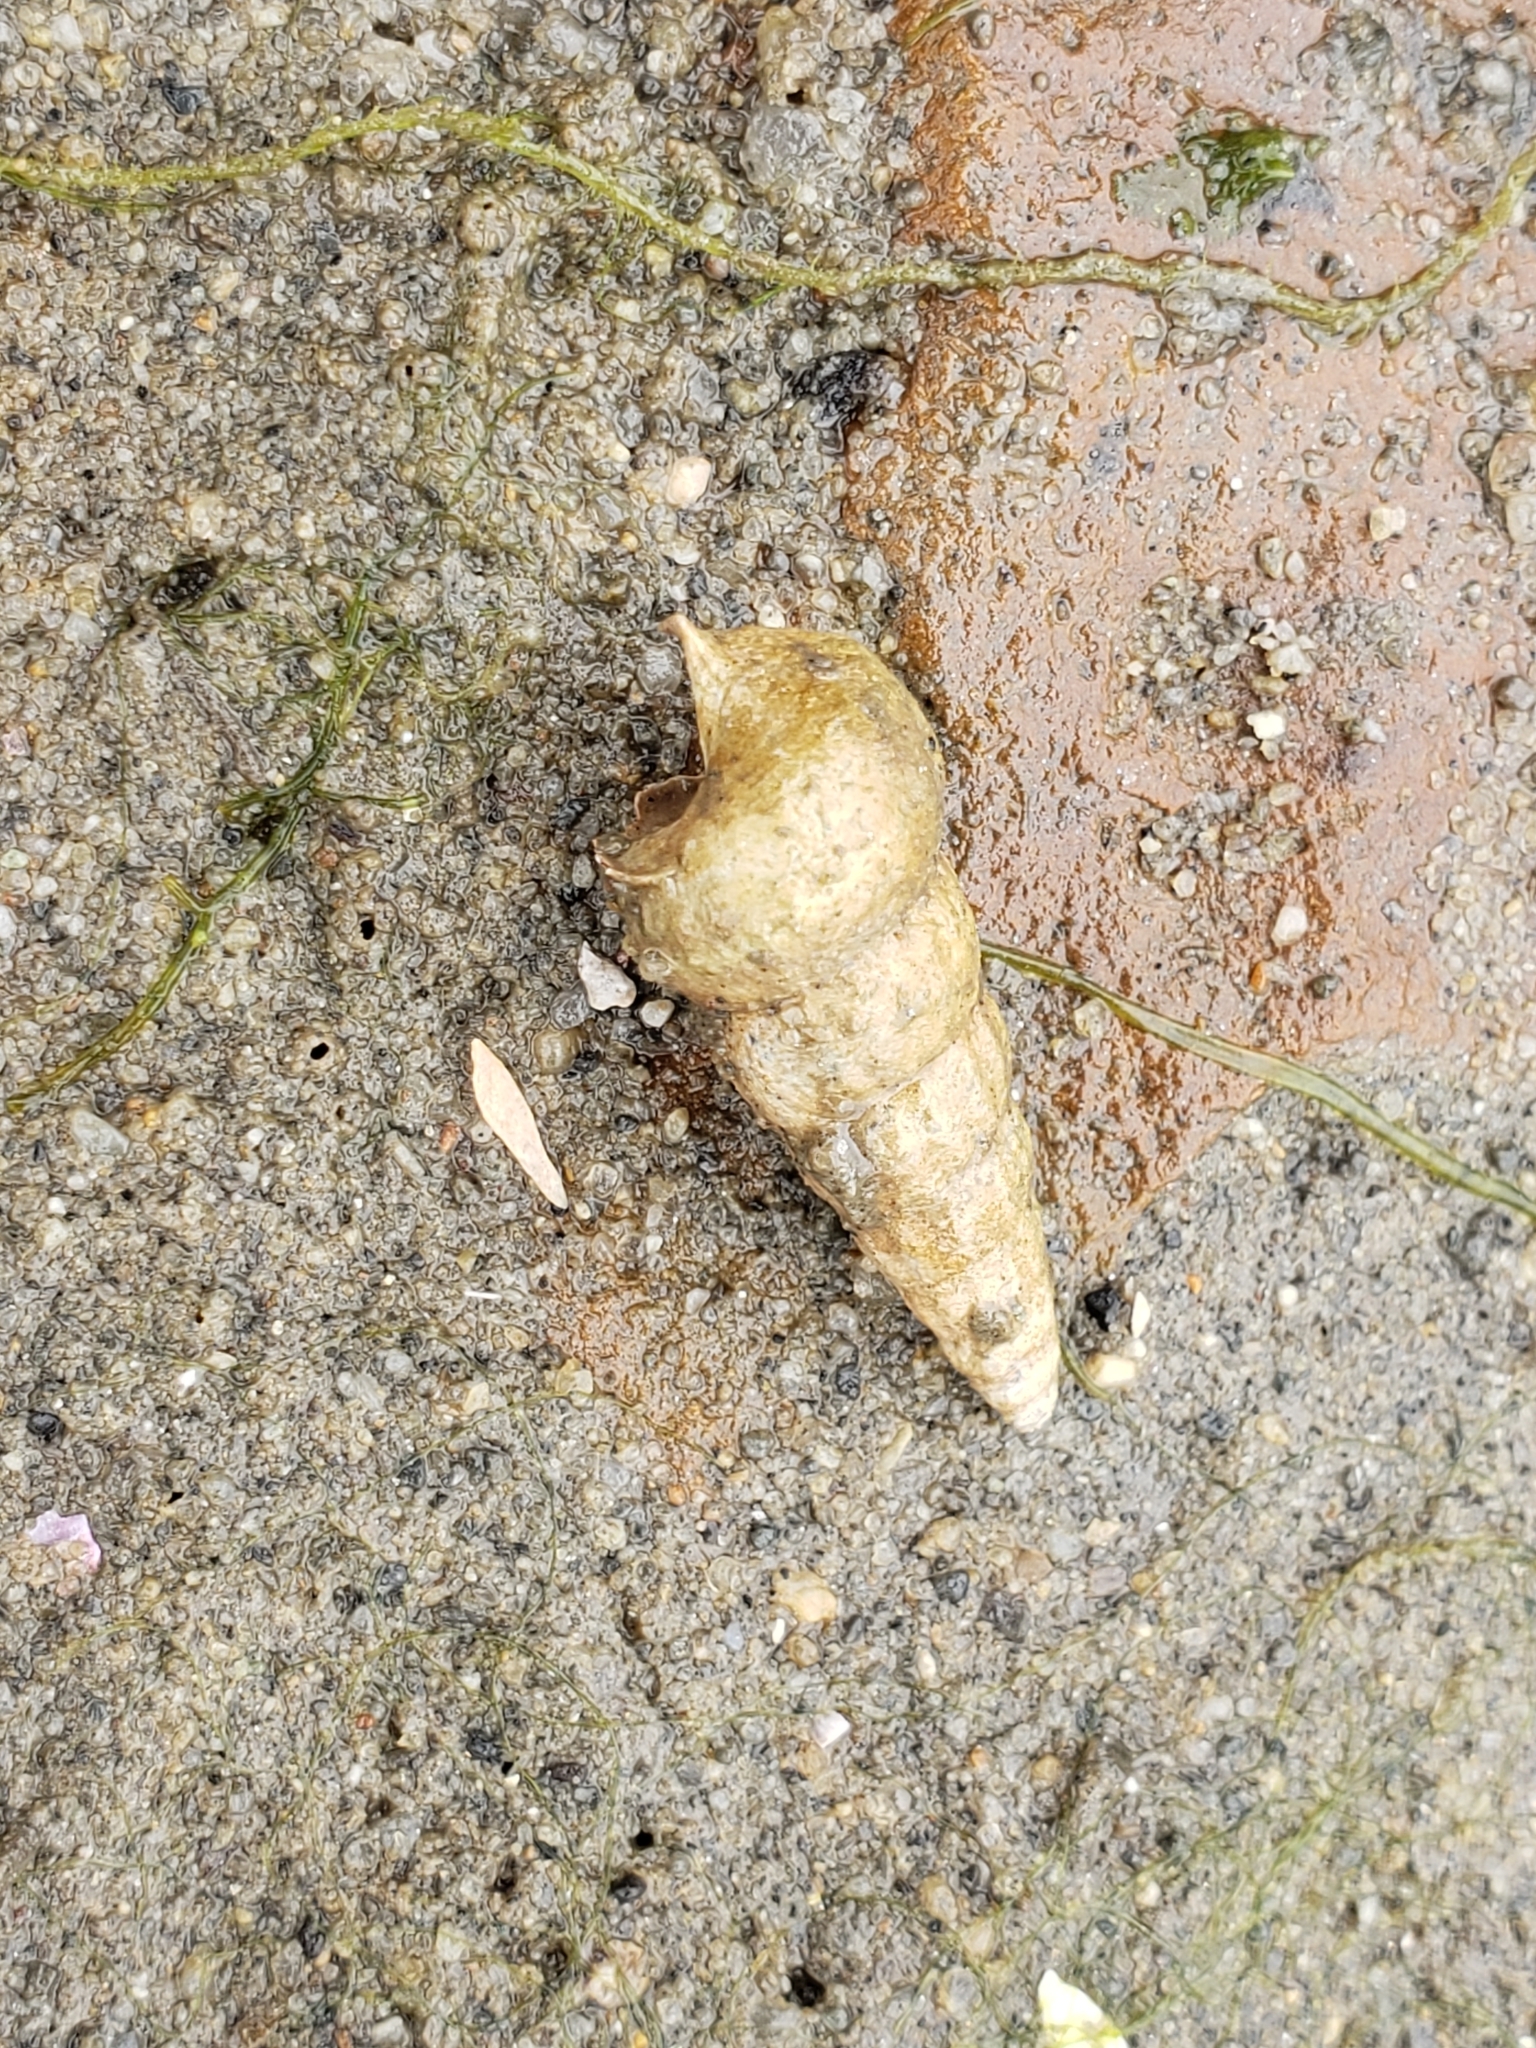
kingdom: Animalia
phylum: Mollusca
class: Gastropoda
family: Potamididae
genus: Cerithideopsis
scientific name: Cerithideopsis californica
